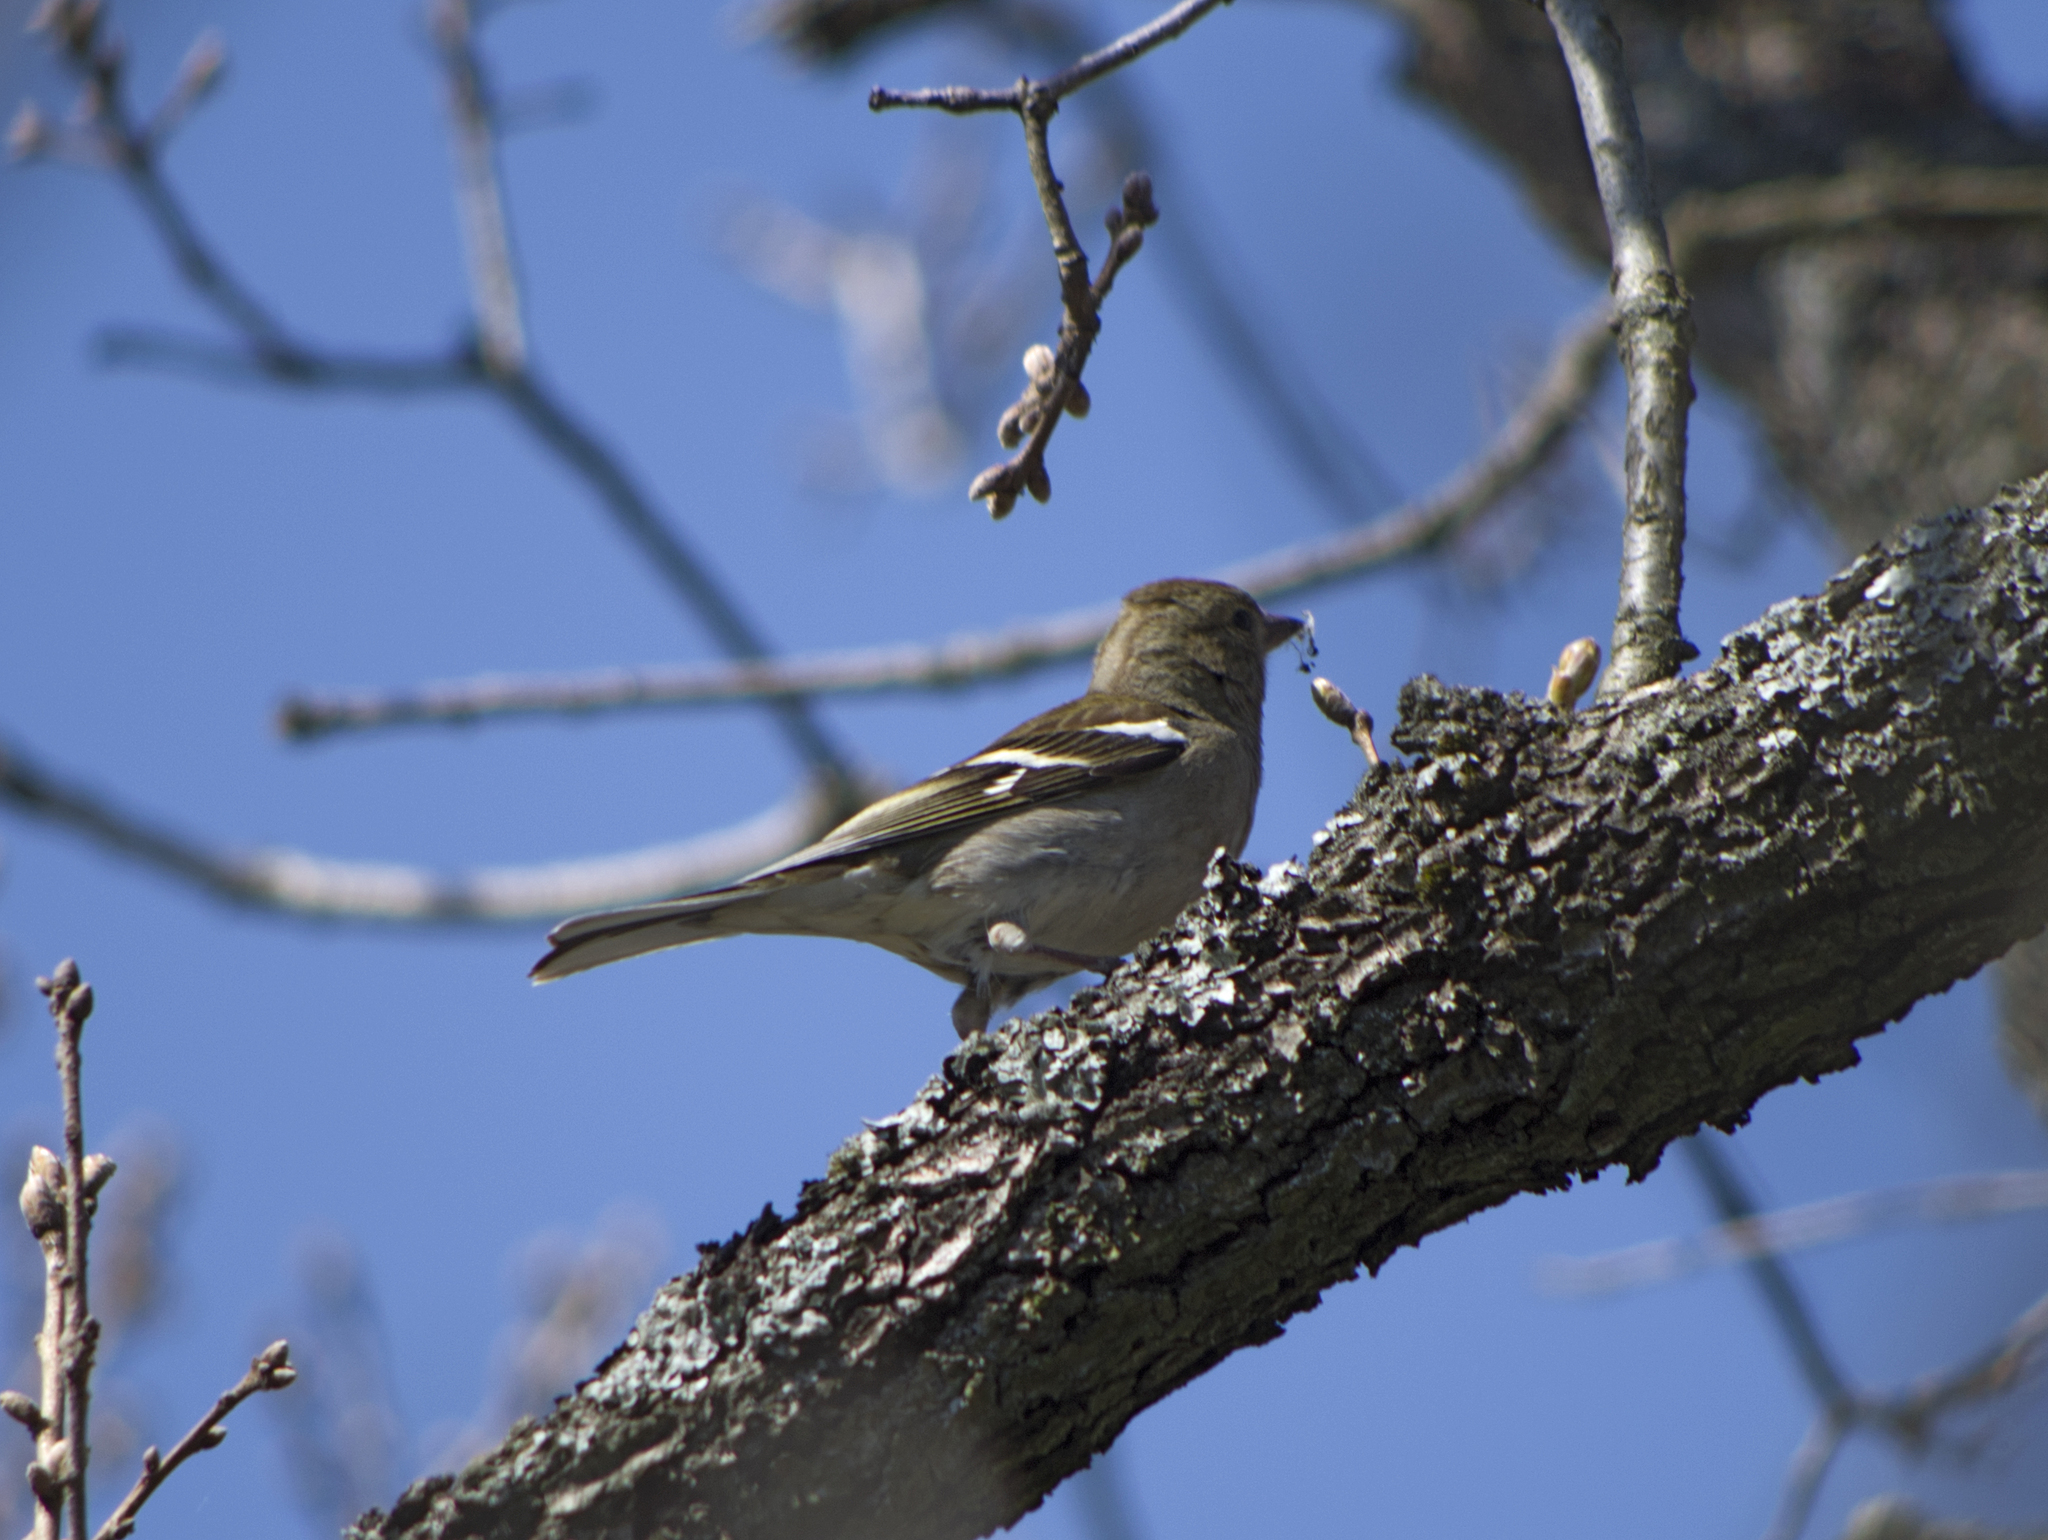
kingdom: Animalia
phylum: Chordata
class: Aves
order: Passeriformes
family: Fringillidae
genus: Fringilla
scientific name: Fringilla coelebs
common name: Common chaffinch
